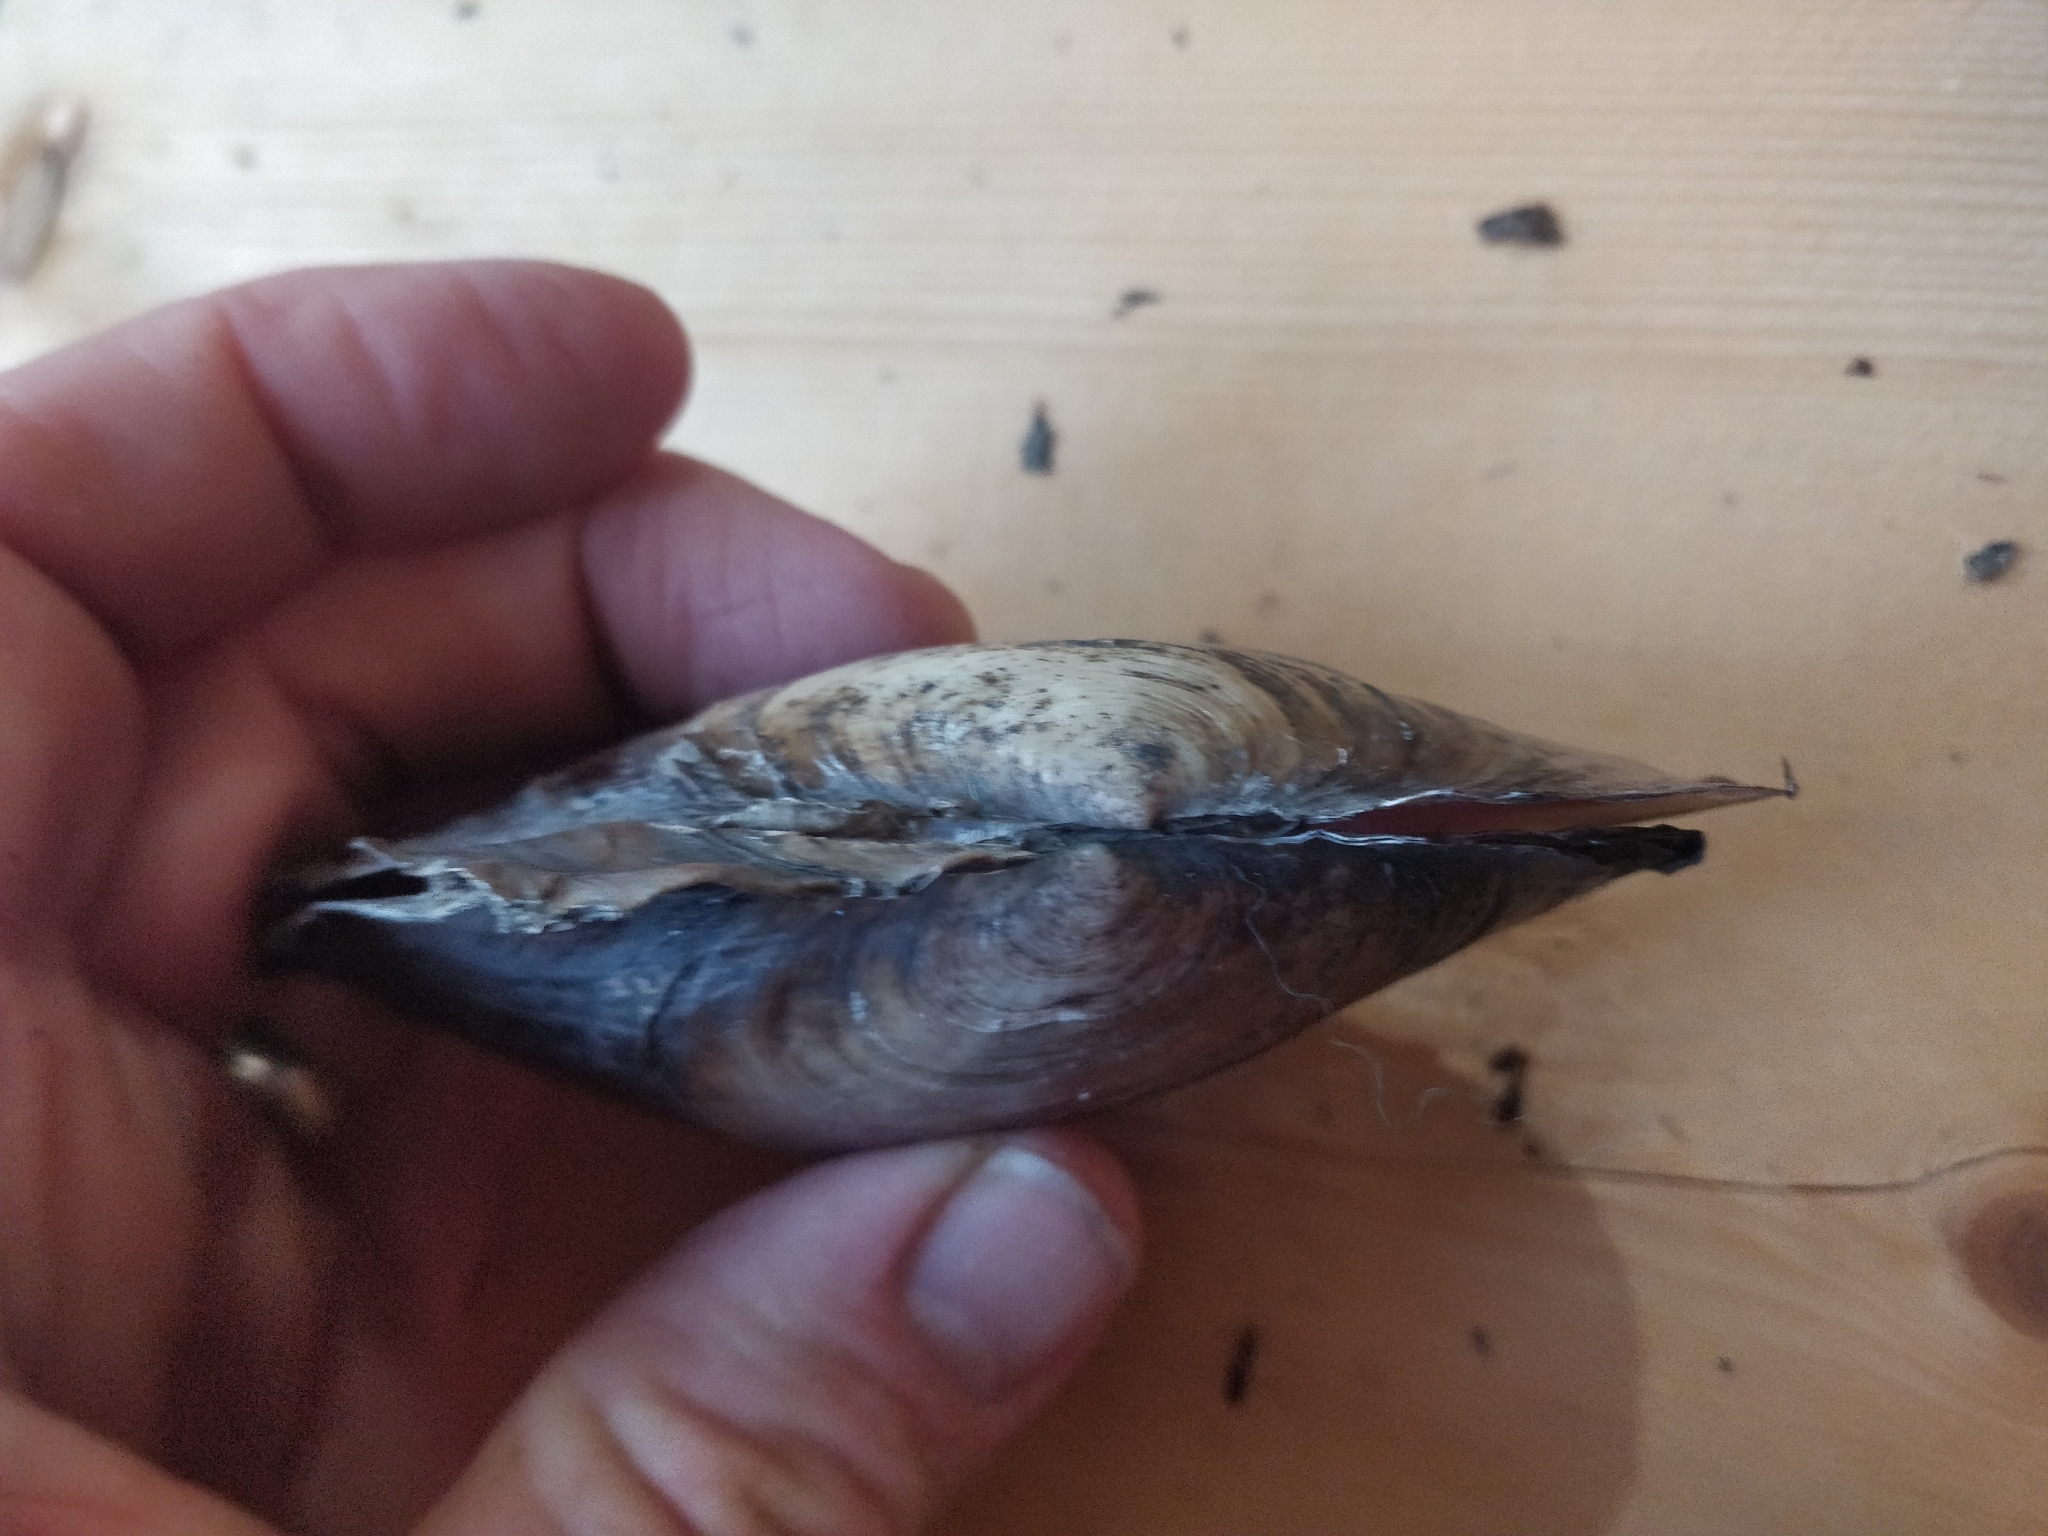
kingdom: Animalia
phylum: Mollusca
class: Bivalvia
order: Unionida
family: Unionidae
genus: Potamilus
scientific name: Potamilus ohiensis
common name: Pink papershell
